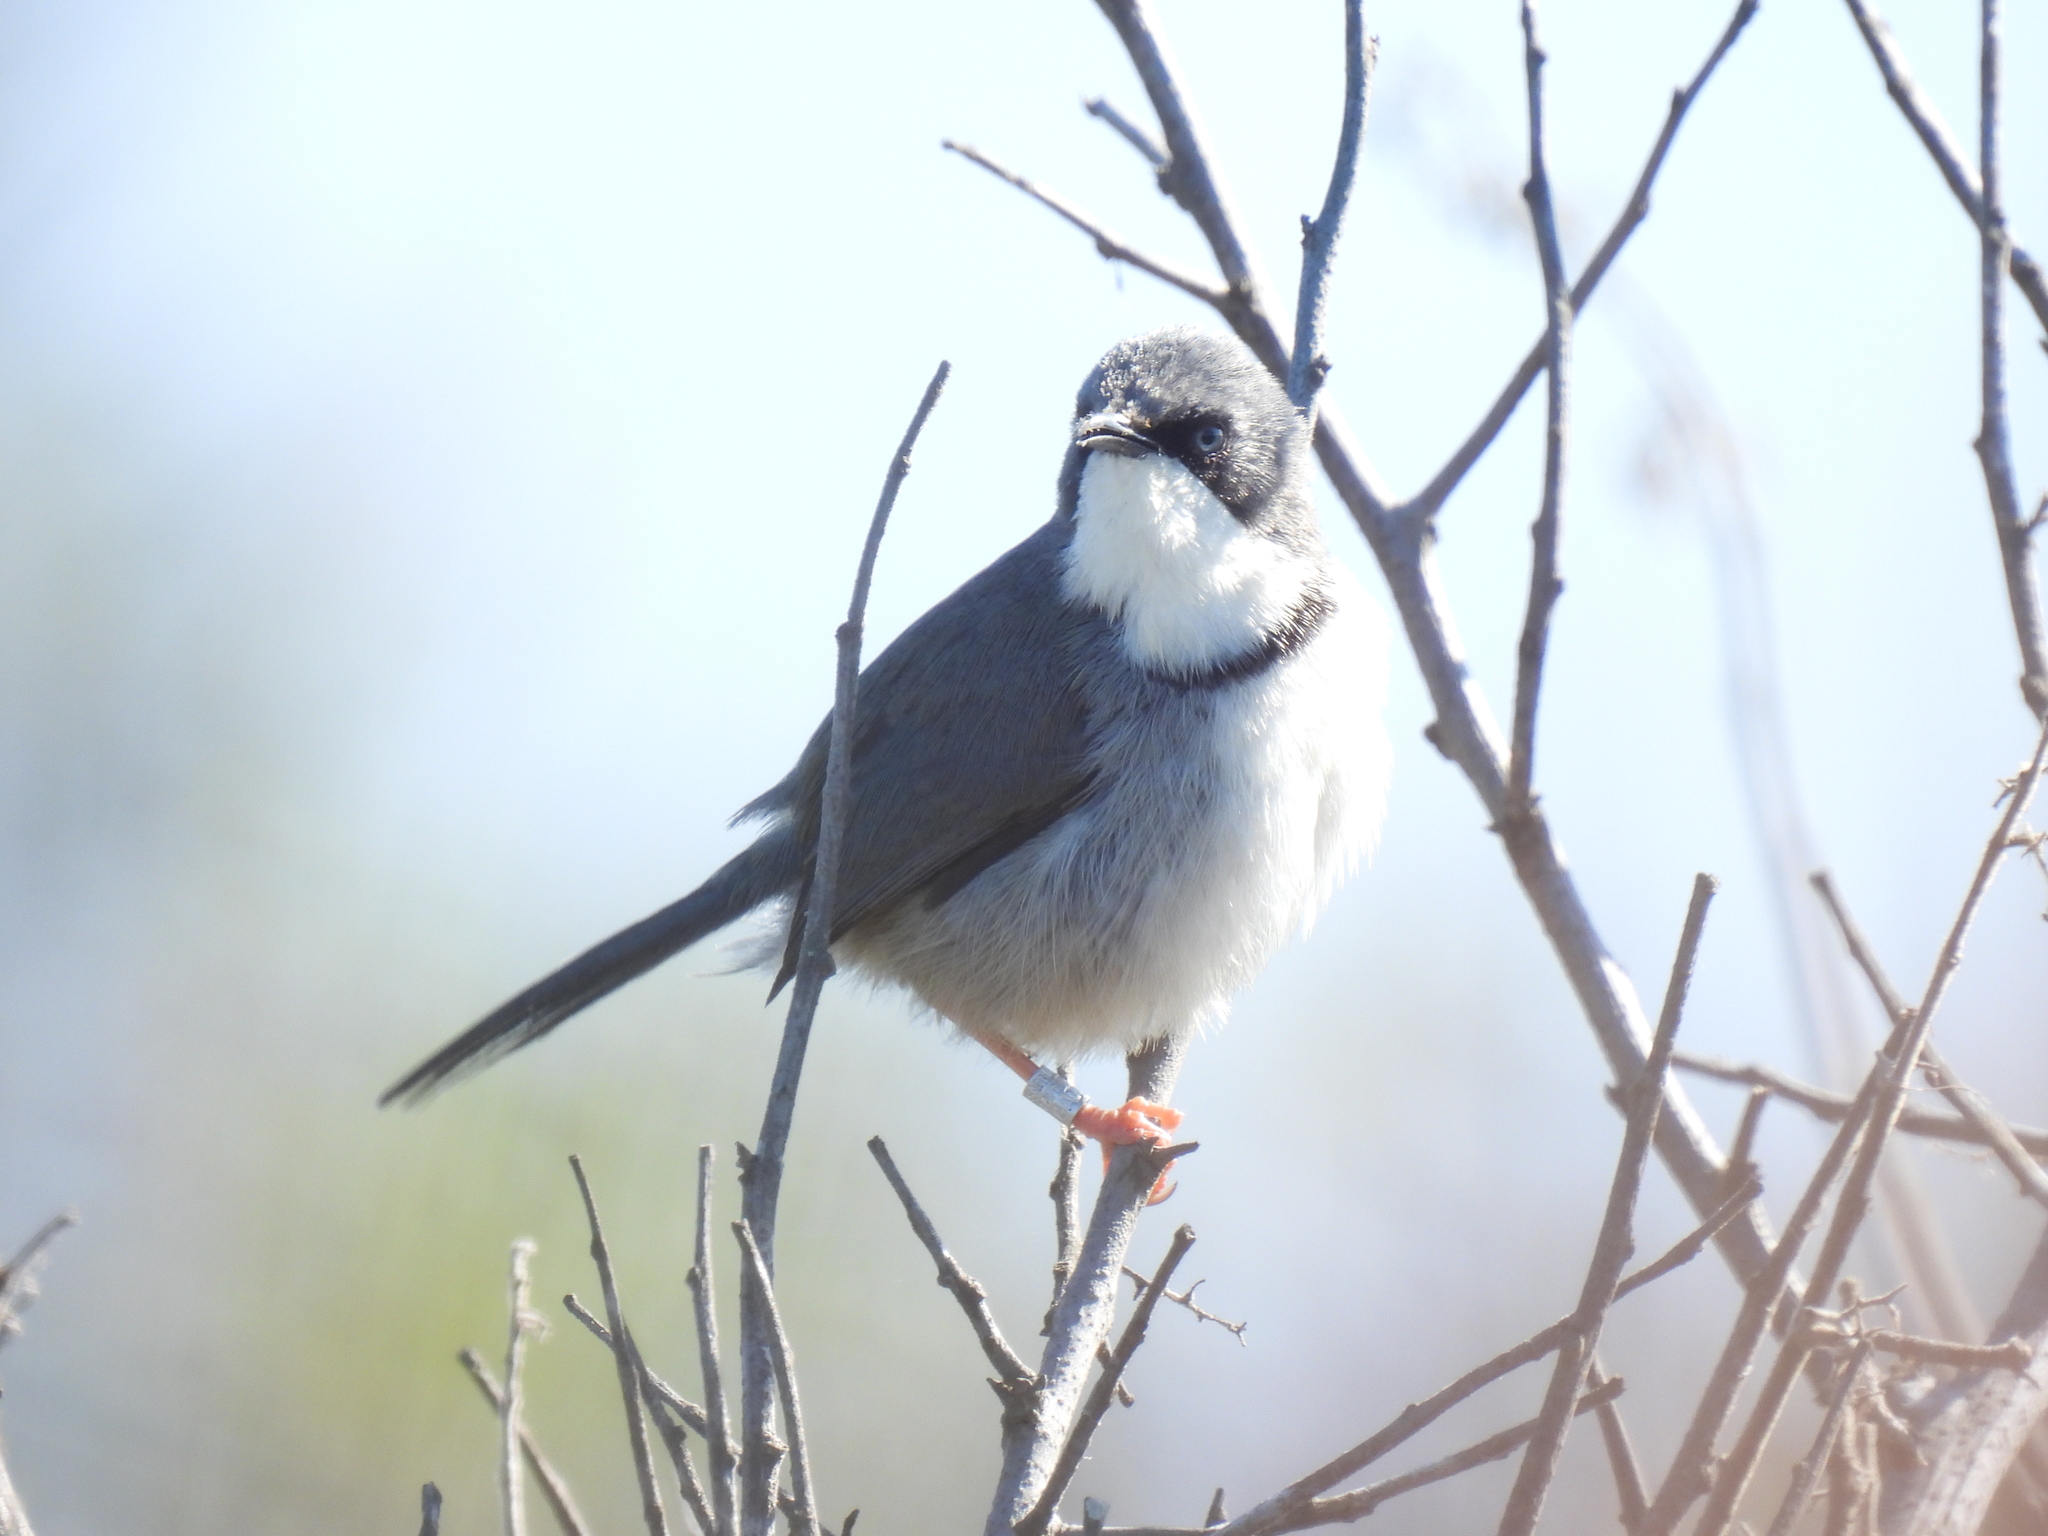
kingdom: Animalia
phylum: Chordata
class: Aves
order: Passeriformes
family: Cisticolidae
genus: Apalis
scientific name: Apalis thoracica
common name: Bar-throated apalis
